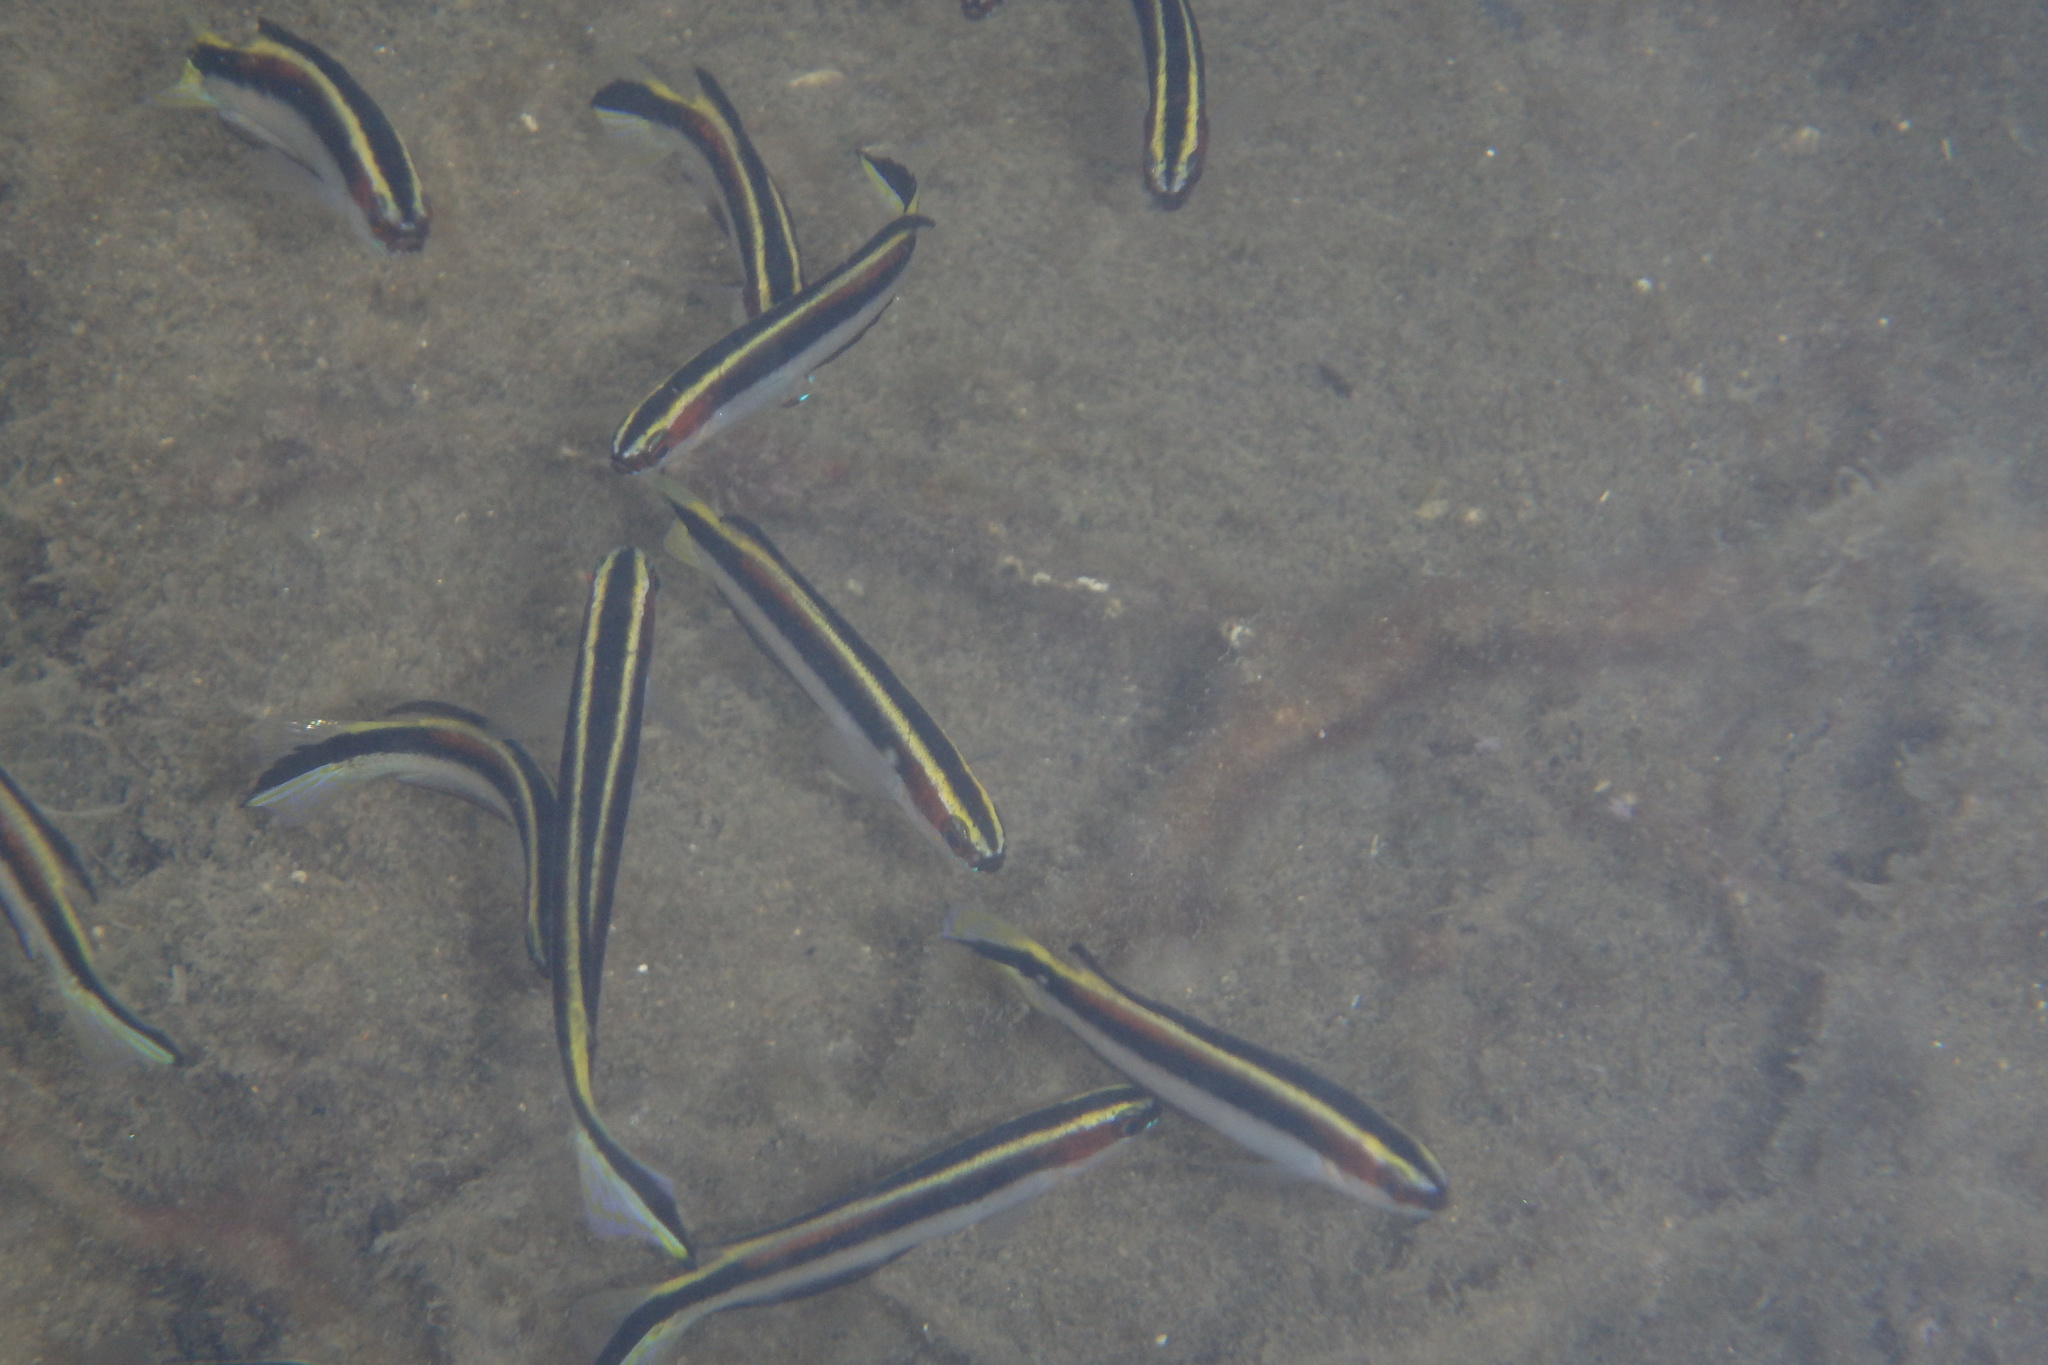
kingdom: Animalia
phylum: Chordata
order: Perciformes
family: Plesiopidae
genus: Trachinops
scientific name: Trachinops taeniatus
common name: Eastern hulafish
